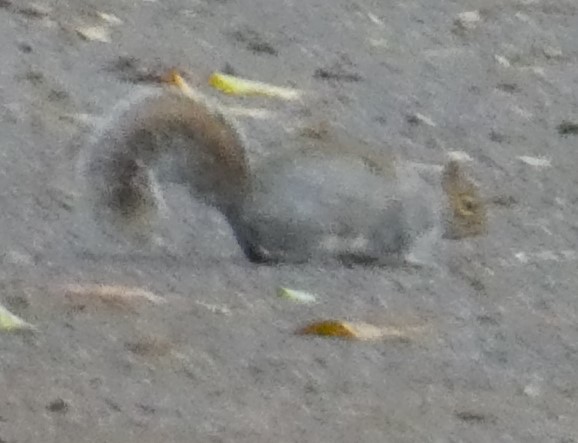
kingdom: Animalia
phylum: Chordata
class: Mammalia
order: Rodentia
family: Sciuridae
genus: Sciurus
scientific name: Sciurus carolinensis
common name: Eastern gray squirrel
